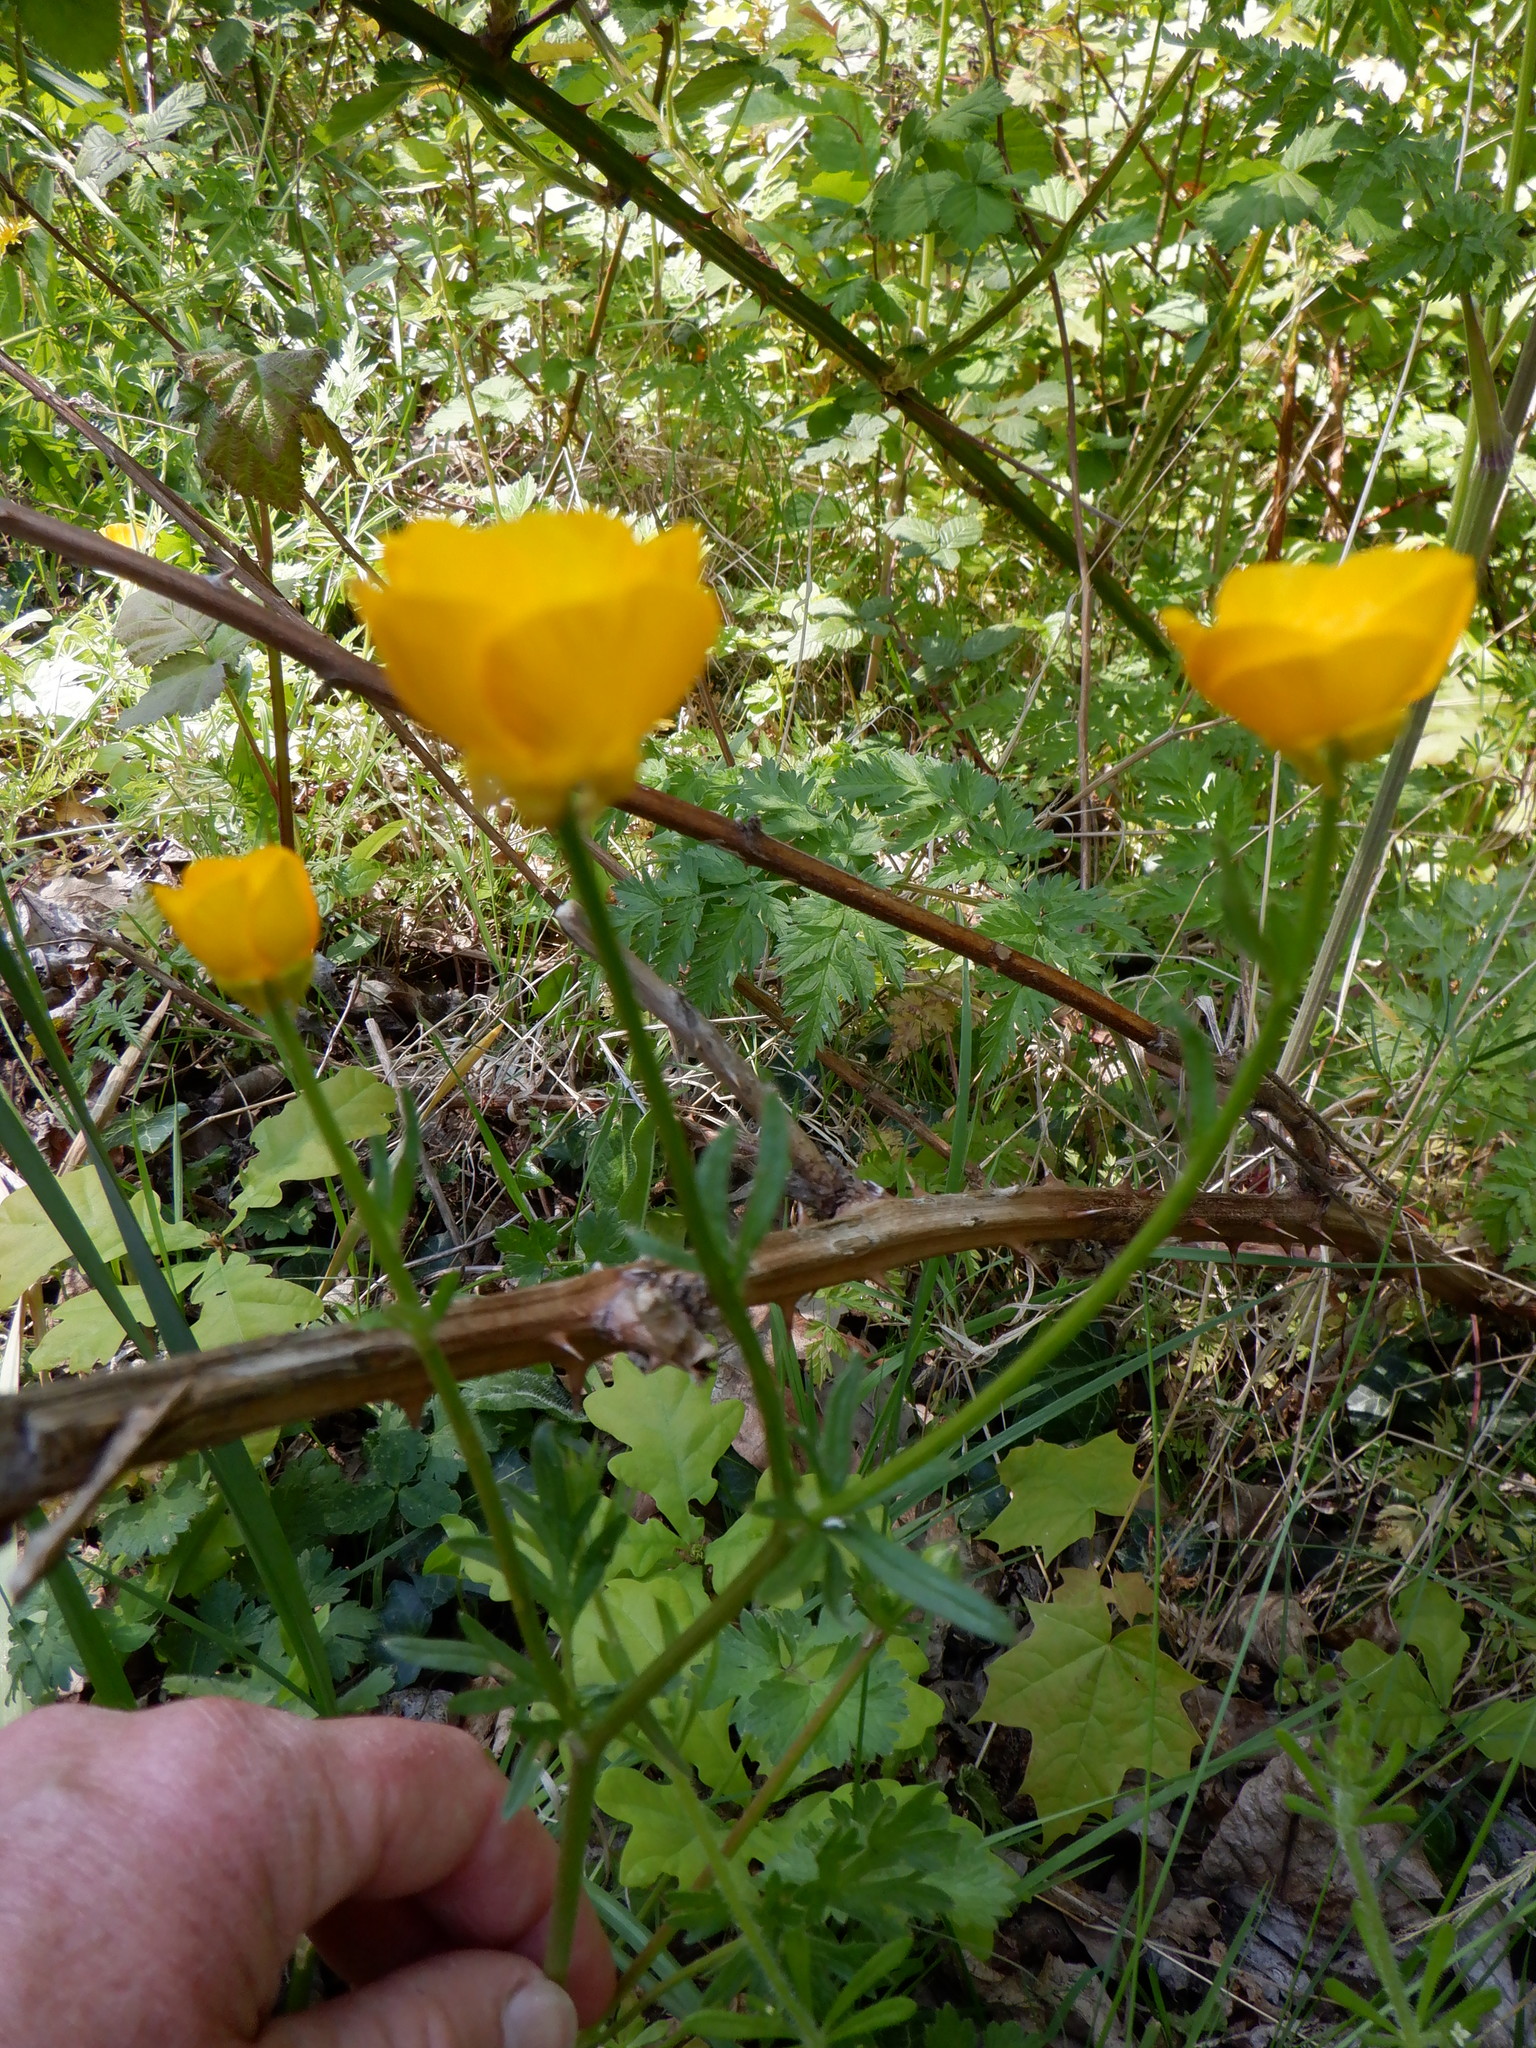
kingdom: Plantae
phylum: Tracheophyta
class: Magnoliopsida
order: Ranunculales
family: Ranunculaceae
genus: Ranunculus
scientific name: Ranunculus bulbosus
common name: Bulbous buttercup
